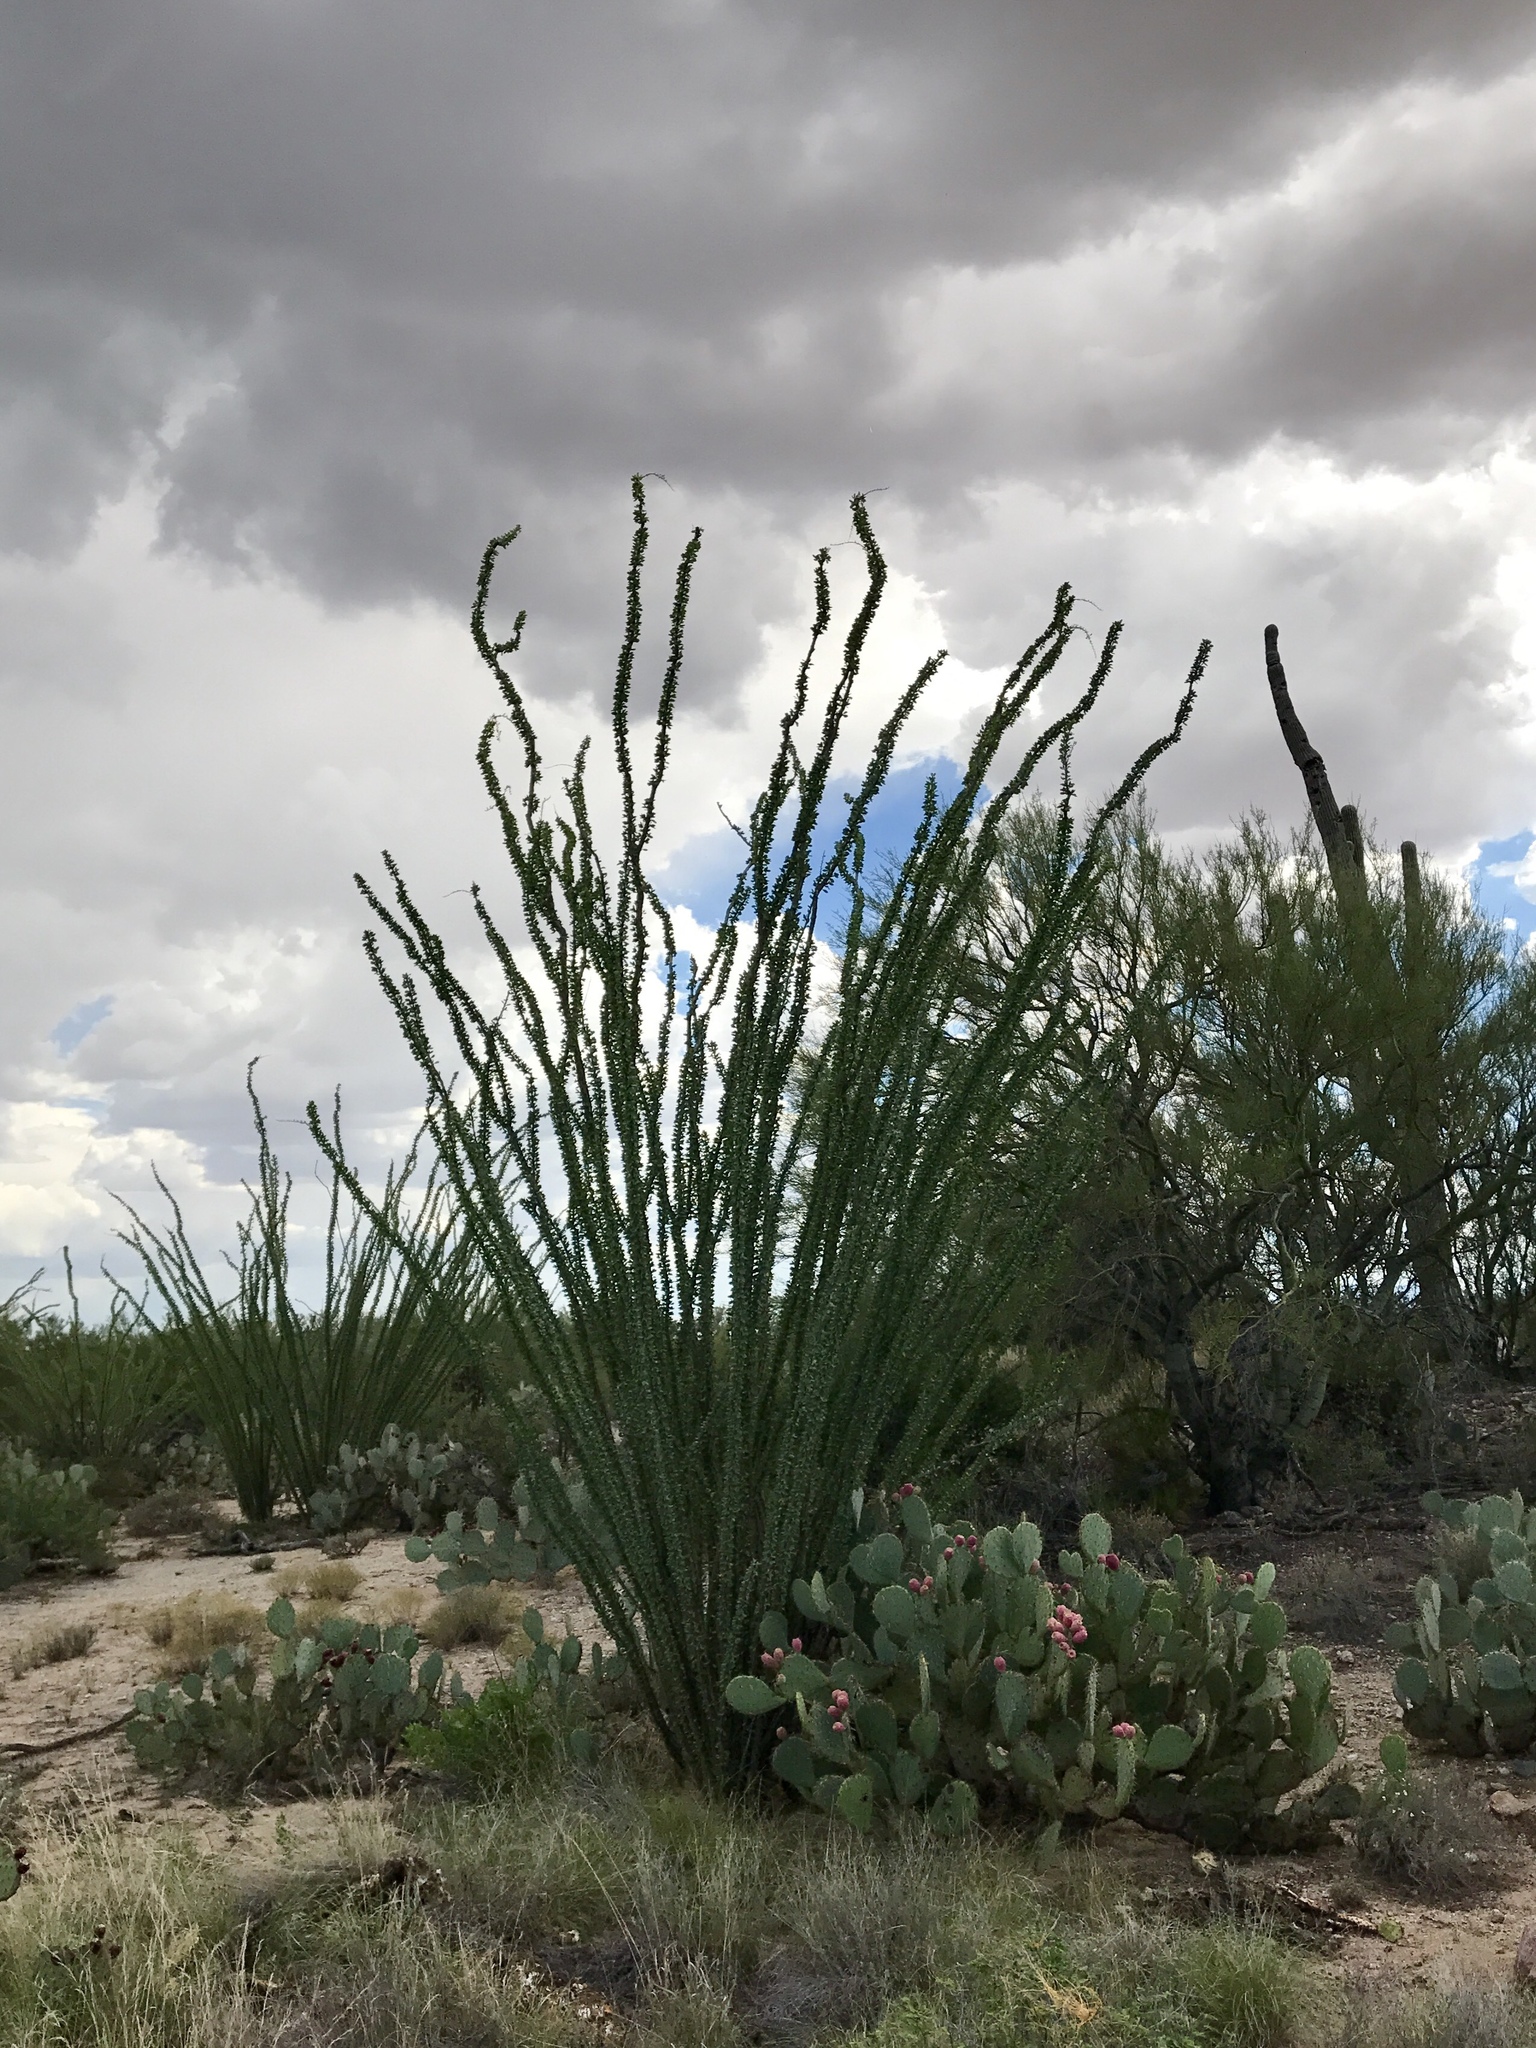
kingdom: Plantae
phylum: Tracheophyta
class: Magnoliopsida
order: Ericales
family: Fouquieriaceae
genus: Fouquieria
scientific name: Fouquieria splendens
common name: Vine-cactus
